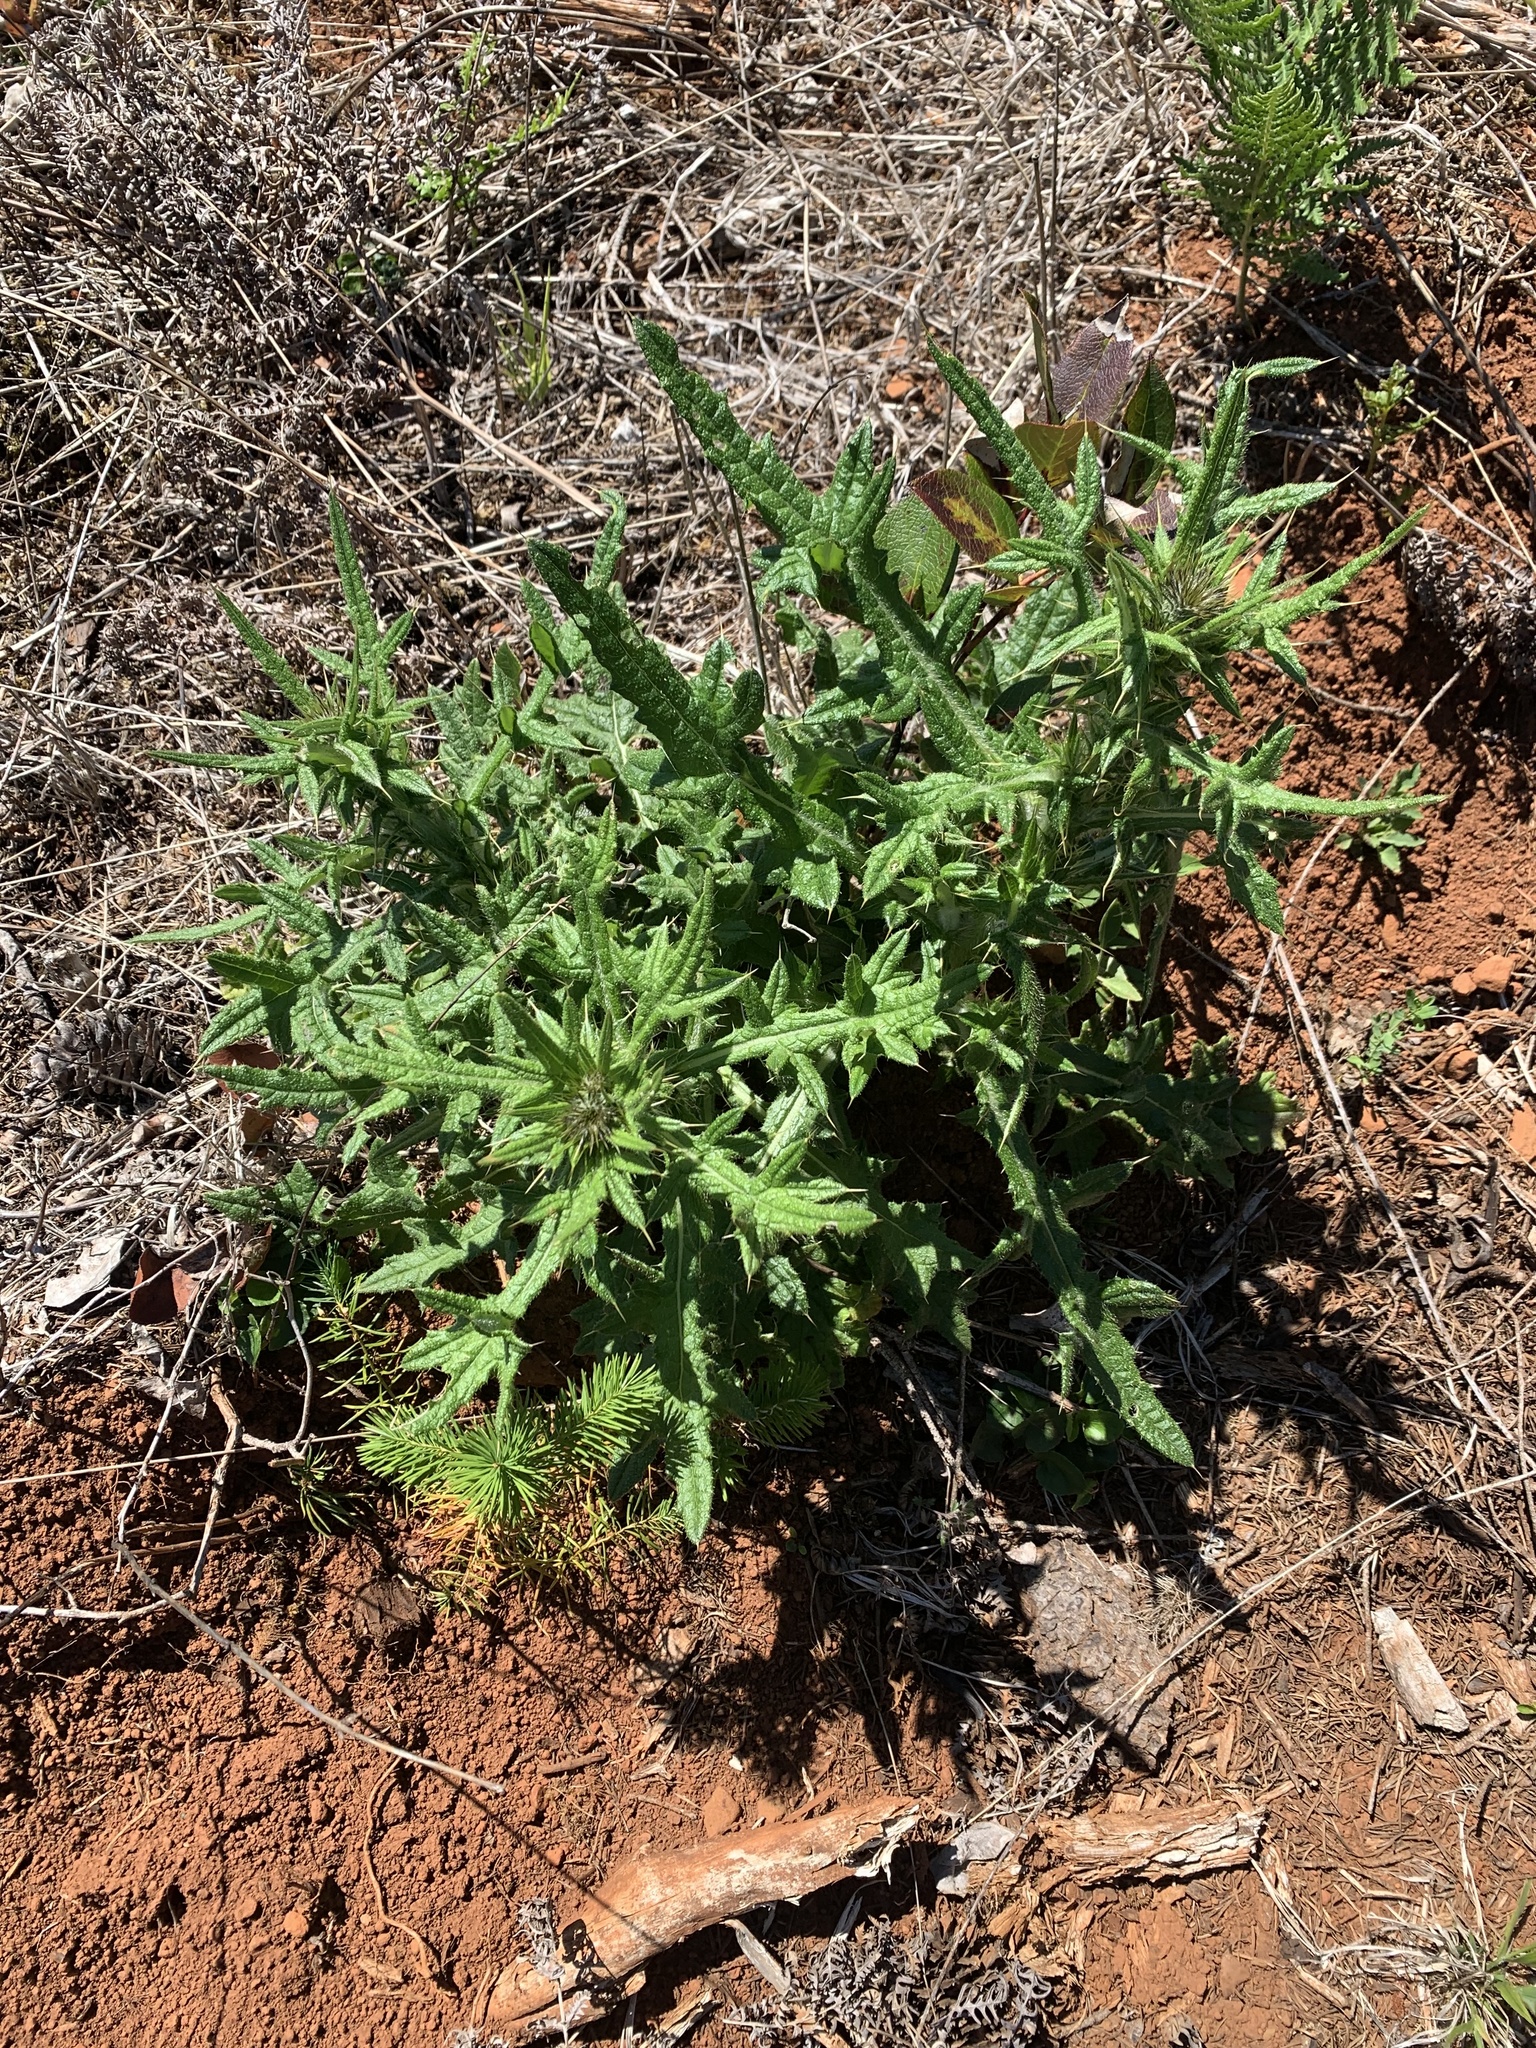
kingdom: Plantae
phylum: Tracheophyta
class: Magnoliopsida
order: Asterales
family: Asteraceae
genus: Cirsium
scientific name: Cirsium vulgare
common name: Bull thistle
